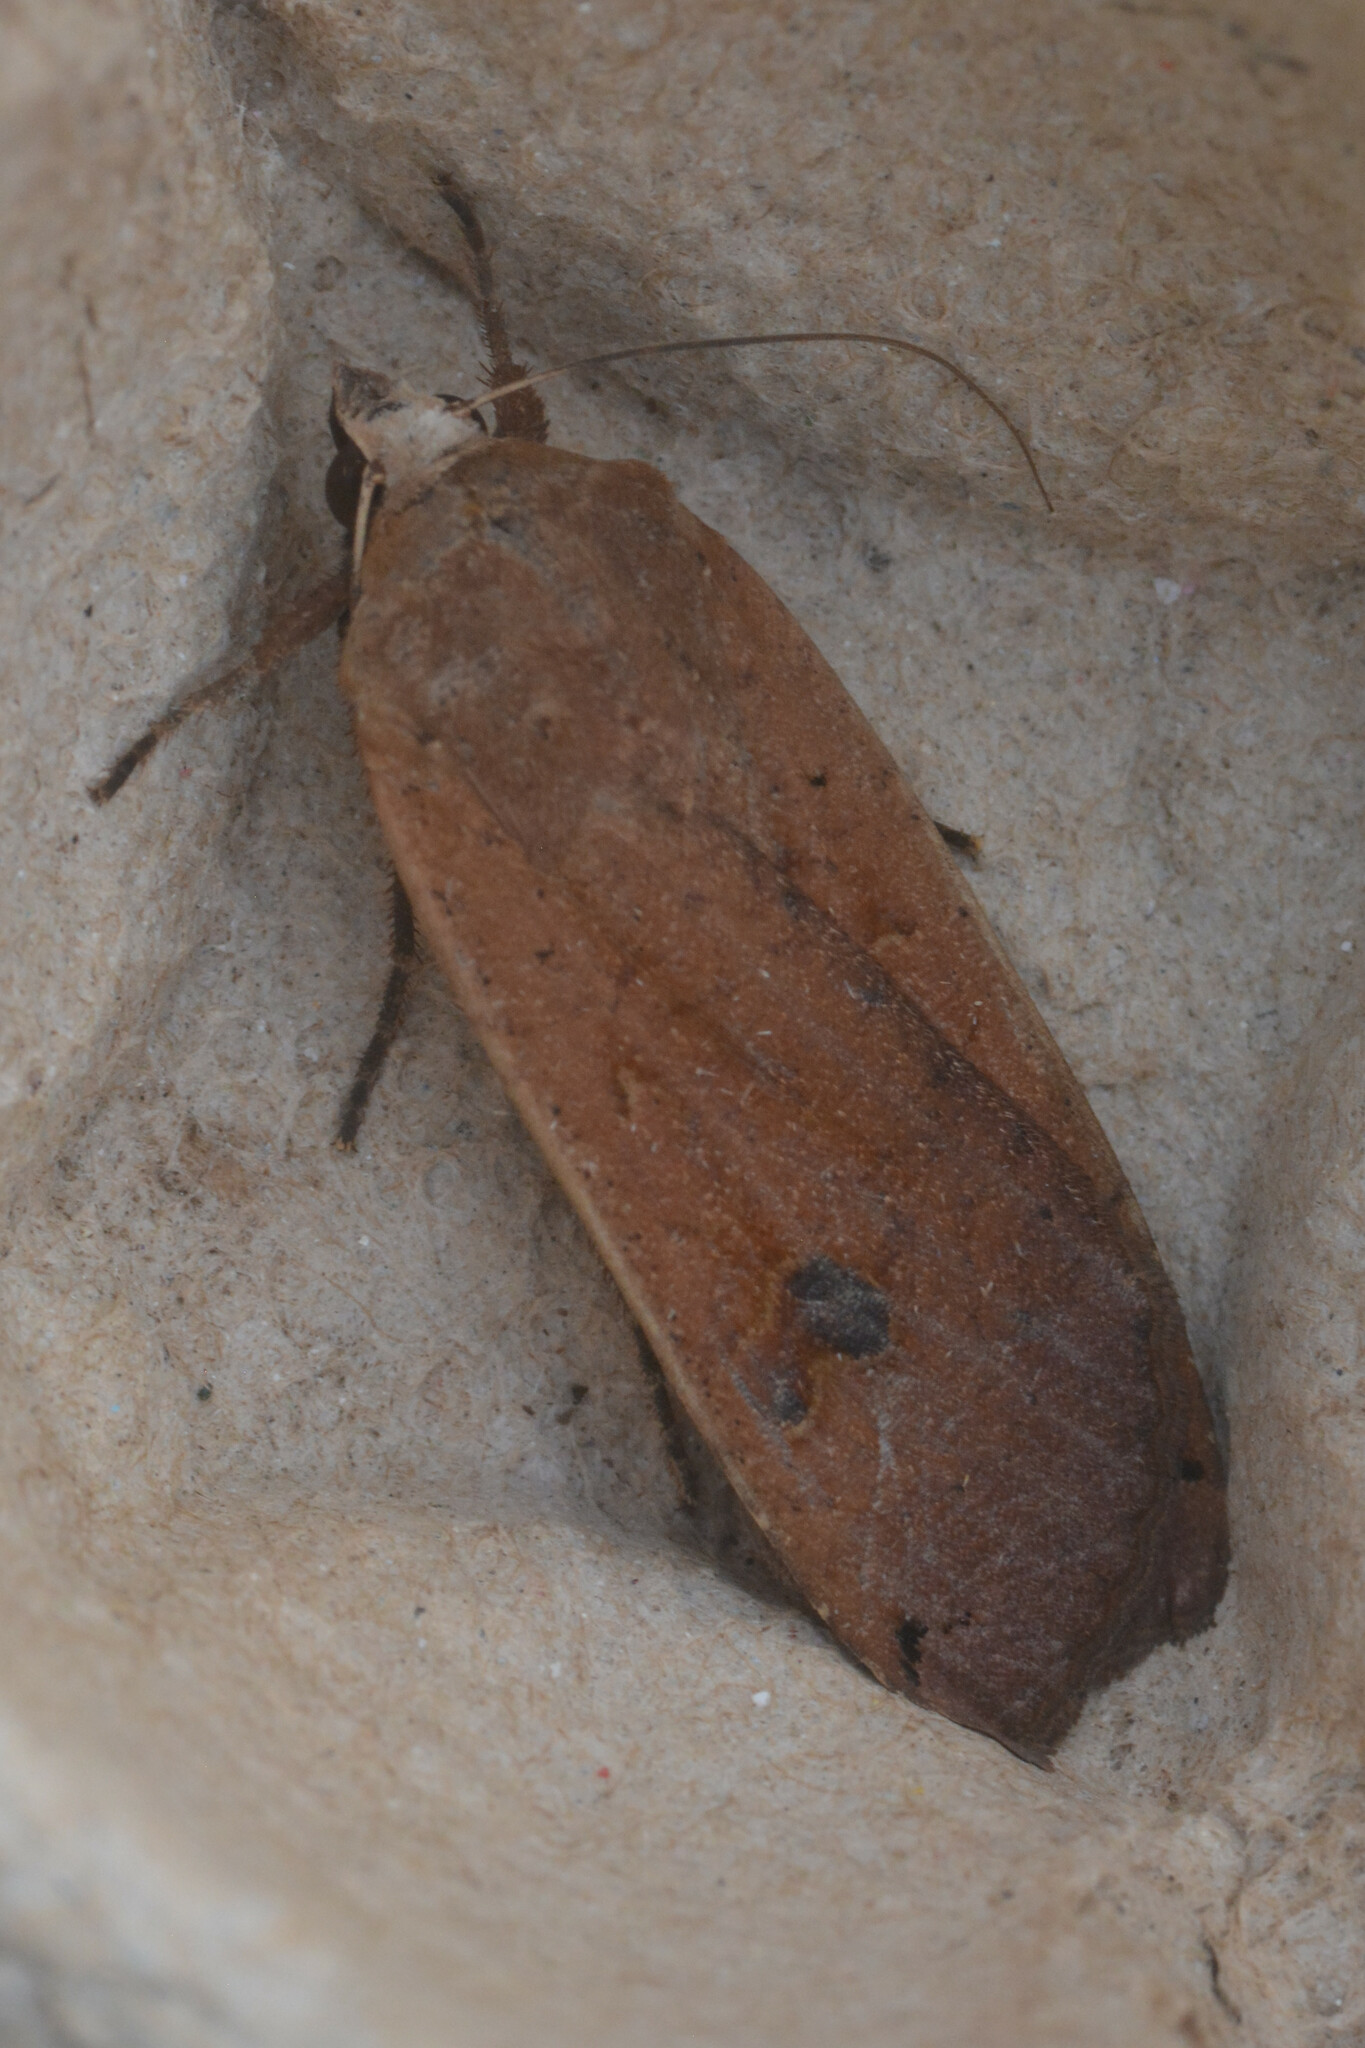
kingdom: Animalia
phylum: Arthropoda
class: Insecta
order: Lepidoptera
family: Noctuidae
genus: Noctua
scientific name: Noctua pronuba
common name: Large yellow underwing
